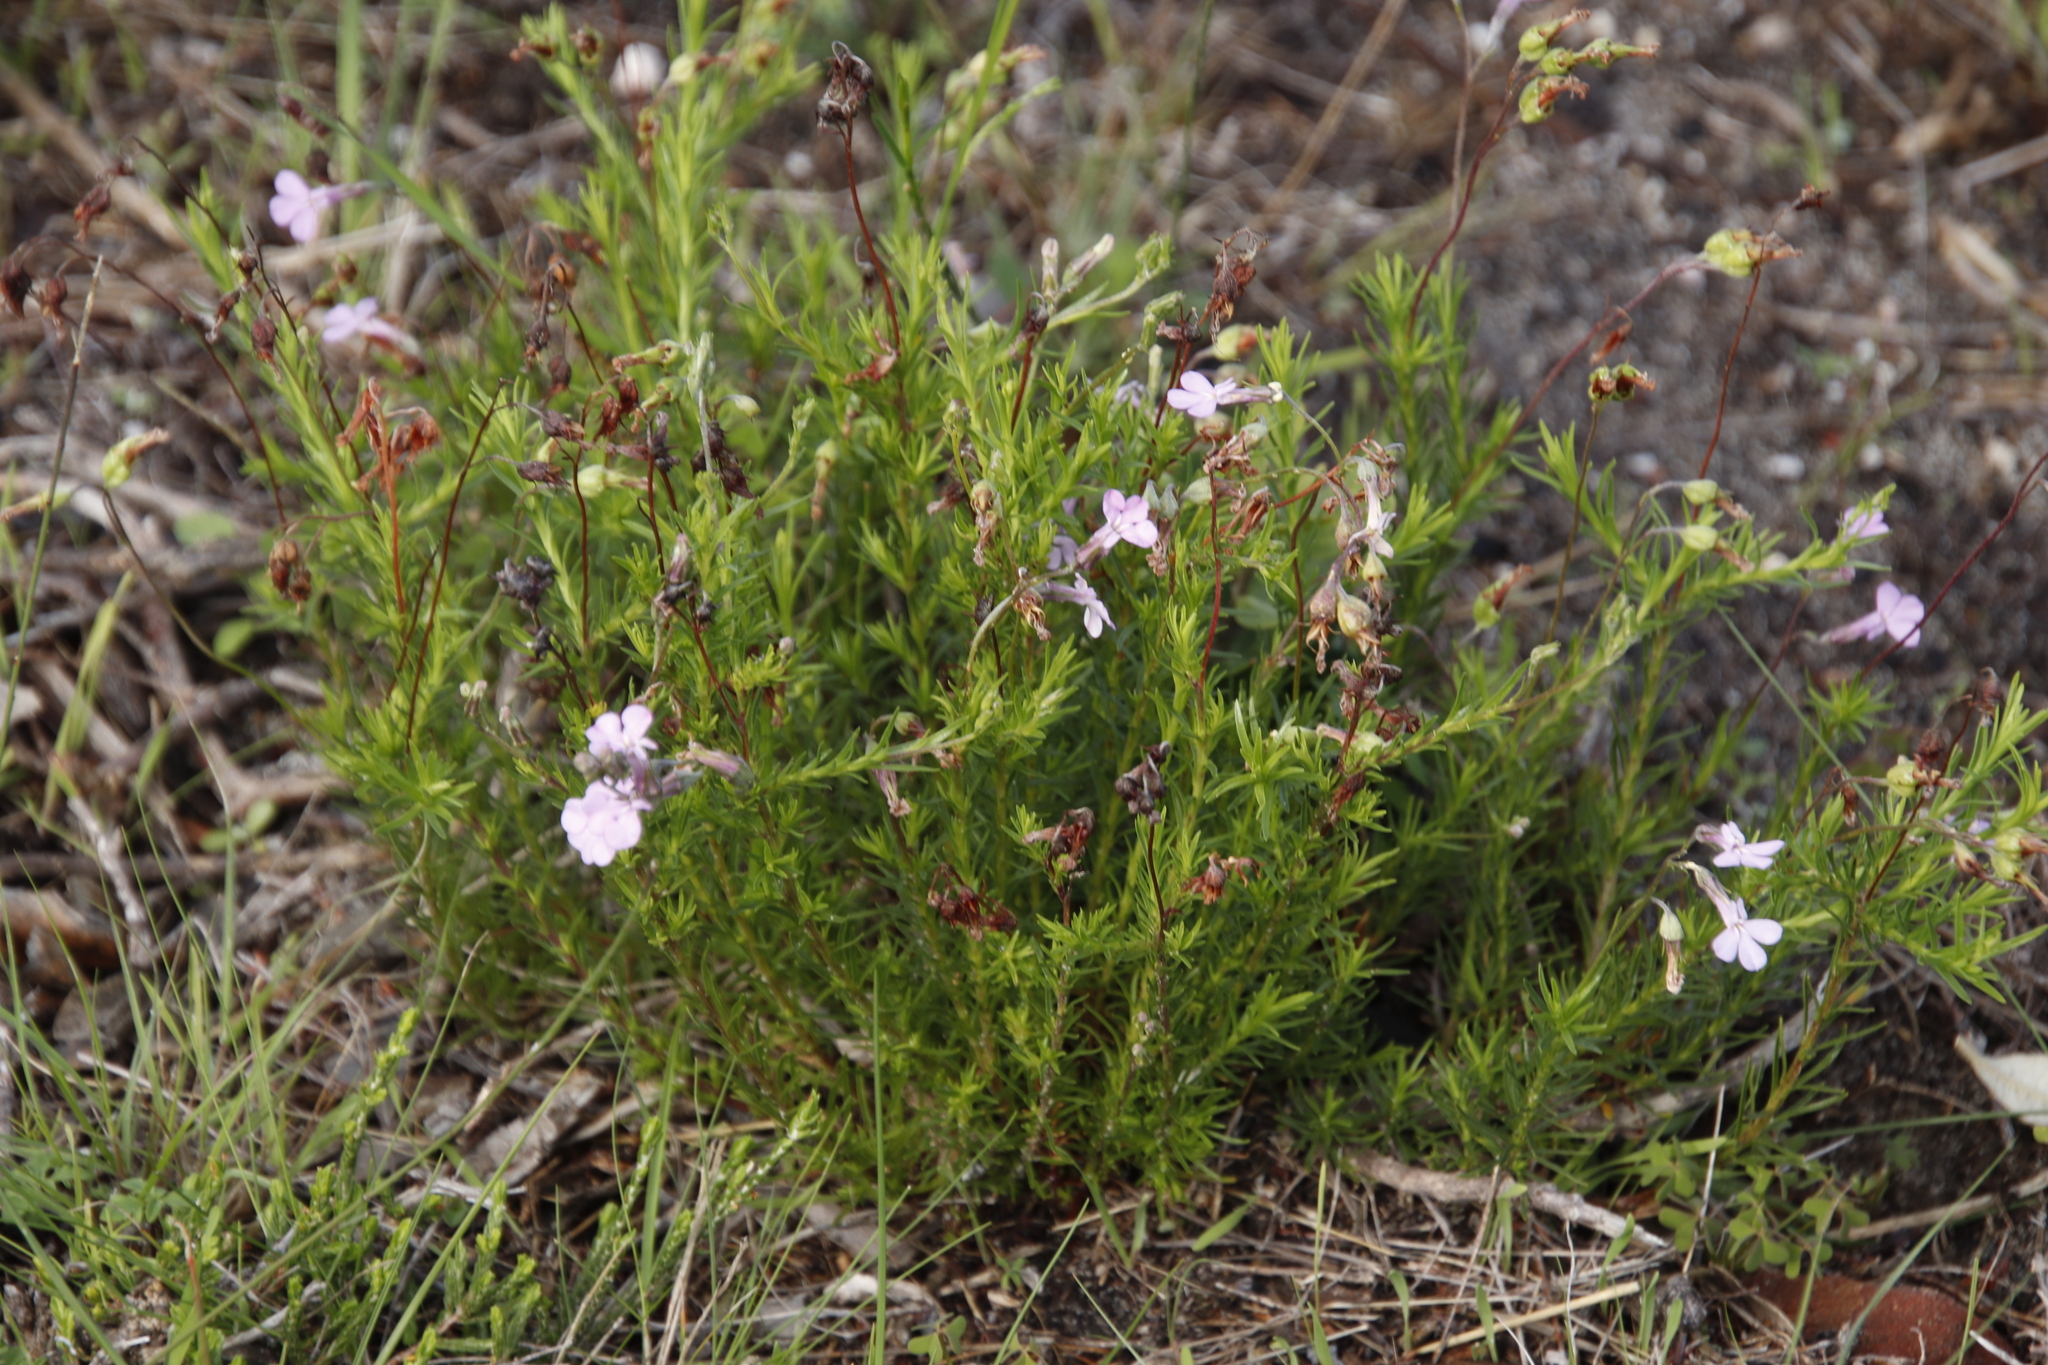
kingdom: Plantae
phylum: Tracheophyta
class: Magnoliopsida
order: Asterales
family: Campanulaceae
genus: Lobelia
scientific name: Lobelia pinifolia
